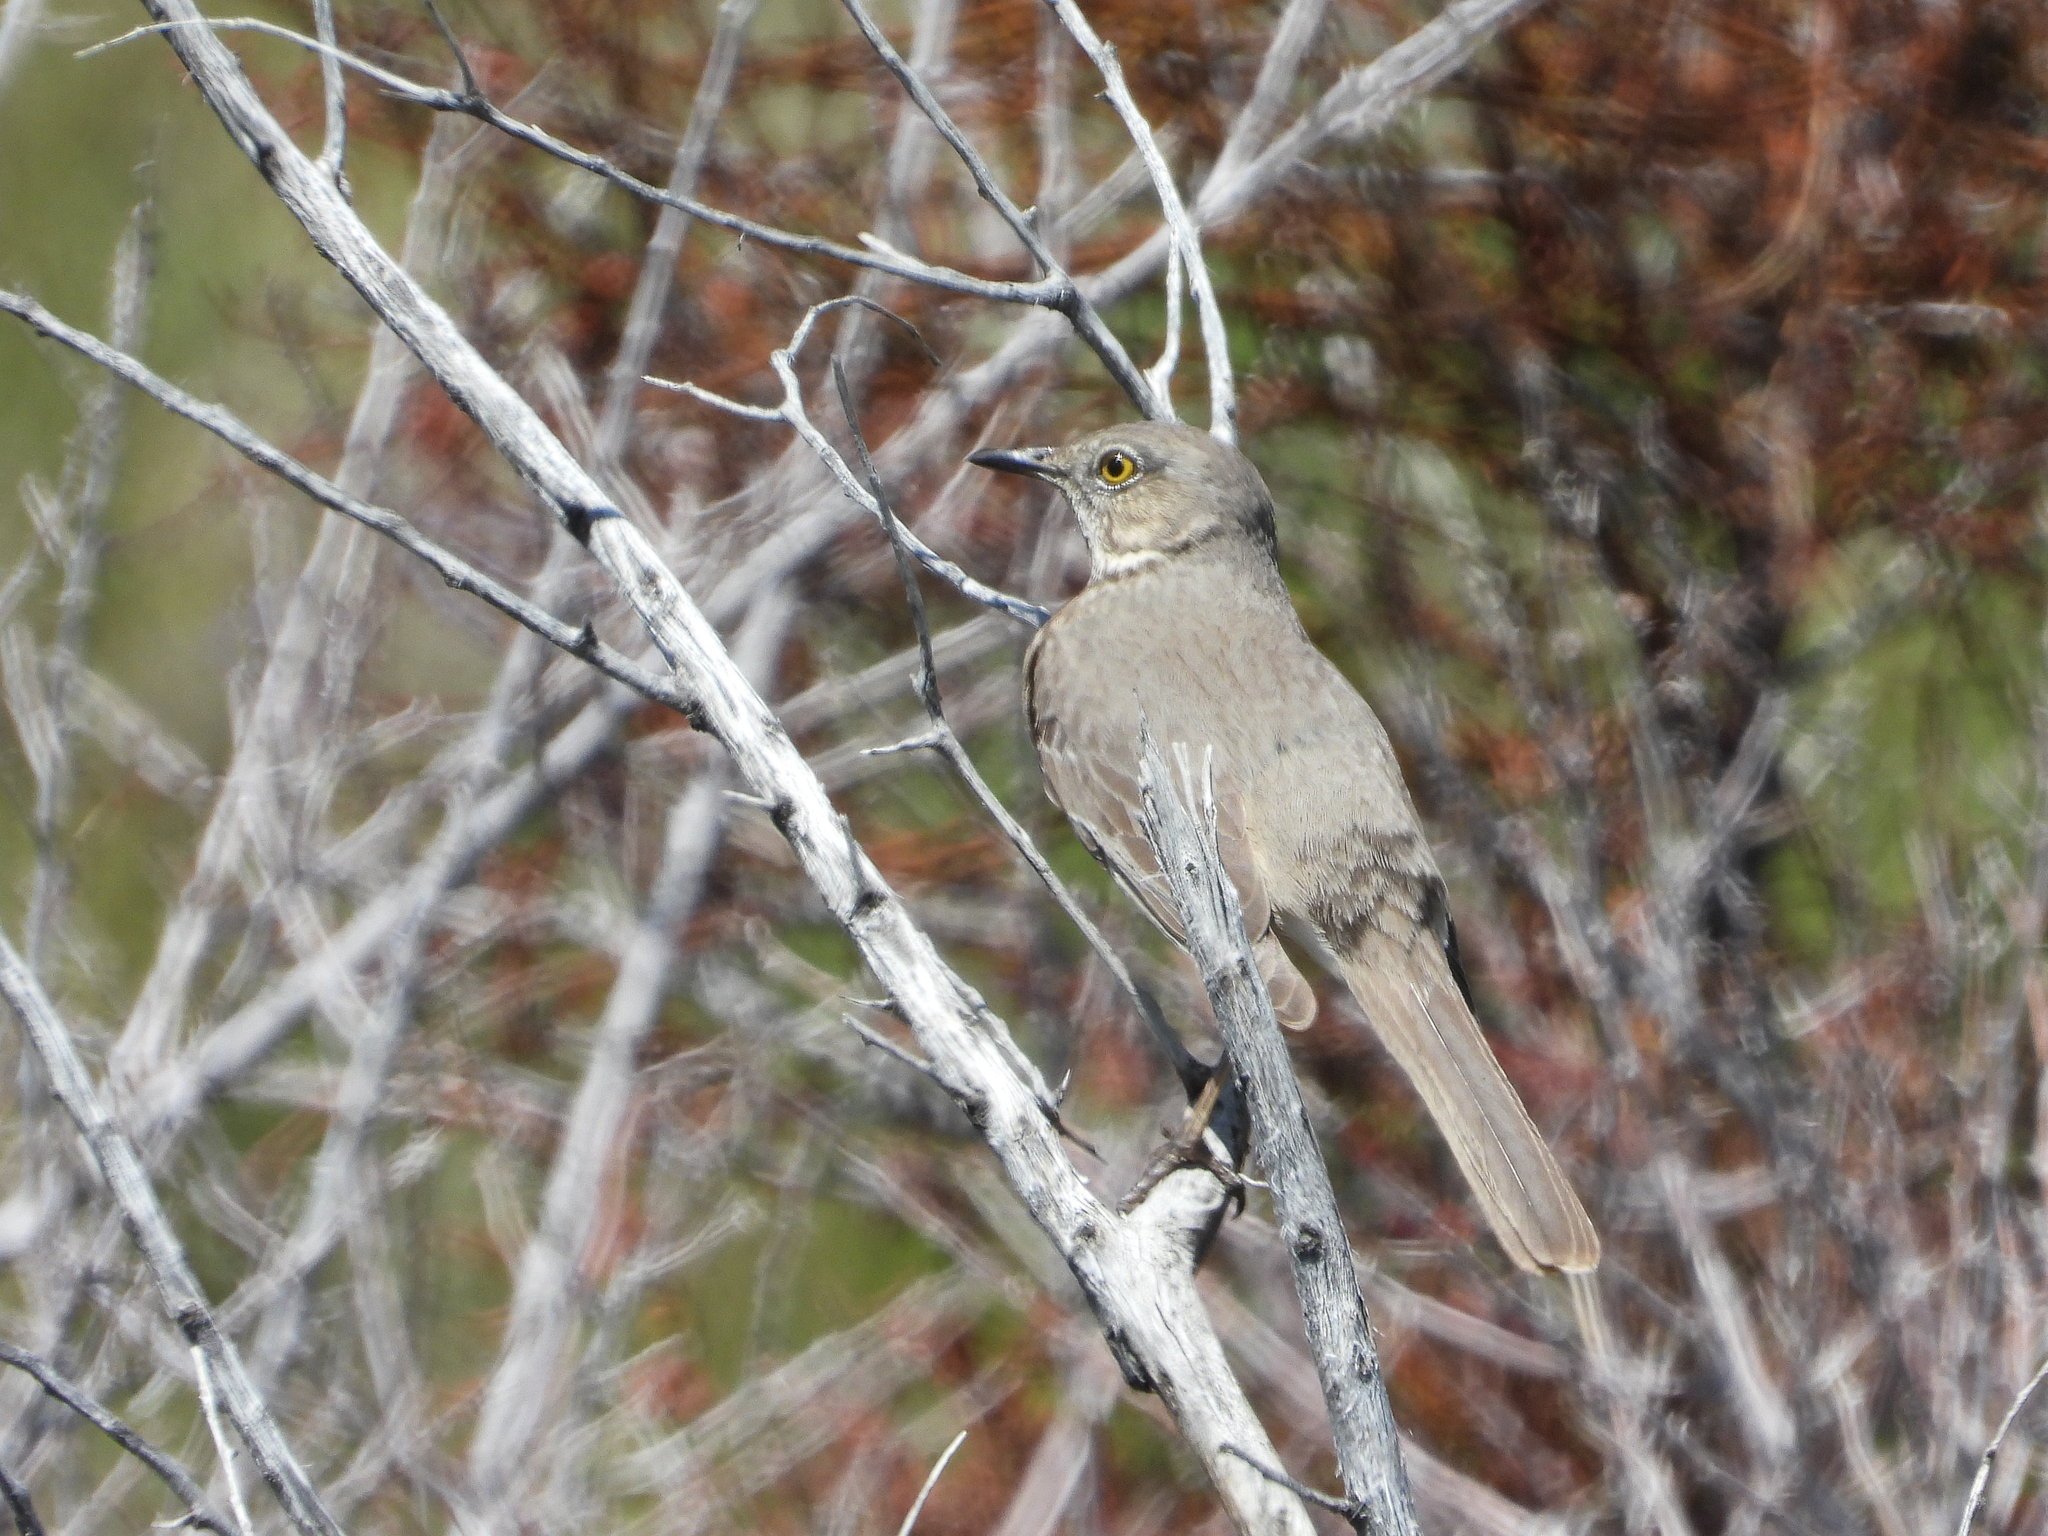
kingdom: Animalia
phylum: Chordata
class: Aves
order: Passeriformes
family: Mimidae
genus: Oreoscoptes
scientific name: Oreoscoptes montanus
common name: Sage thrasher
